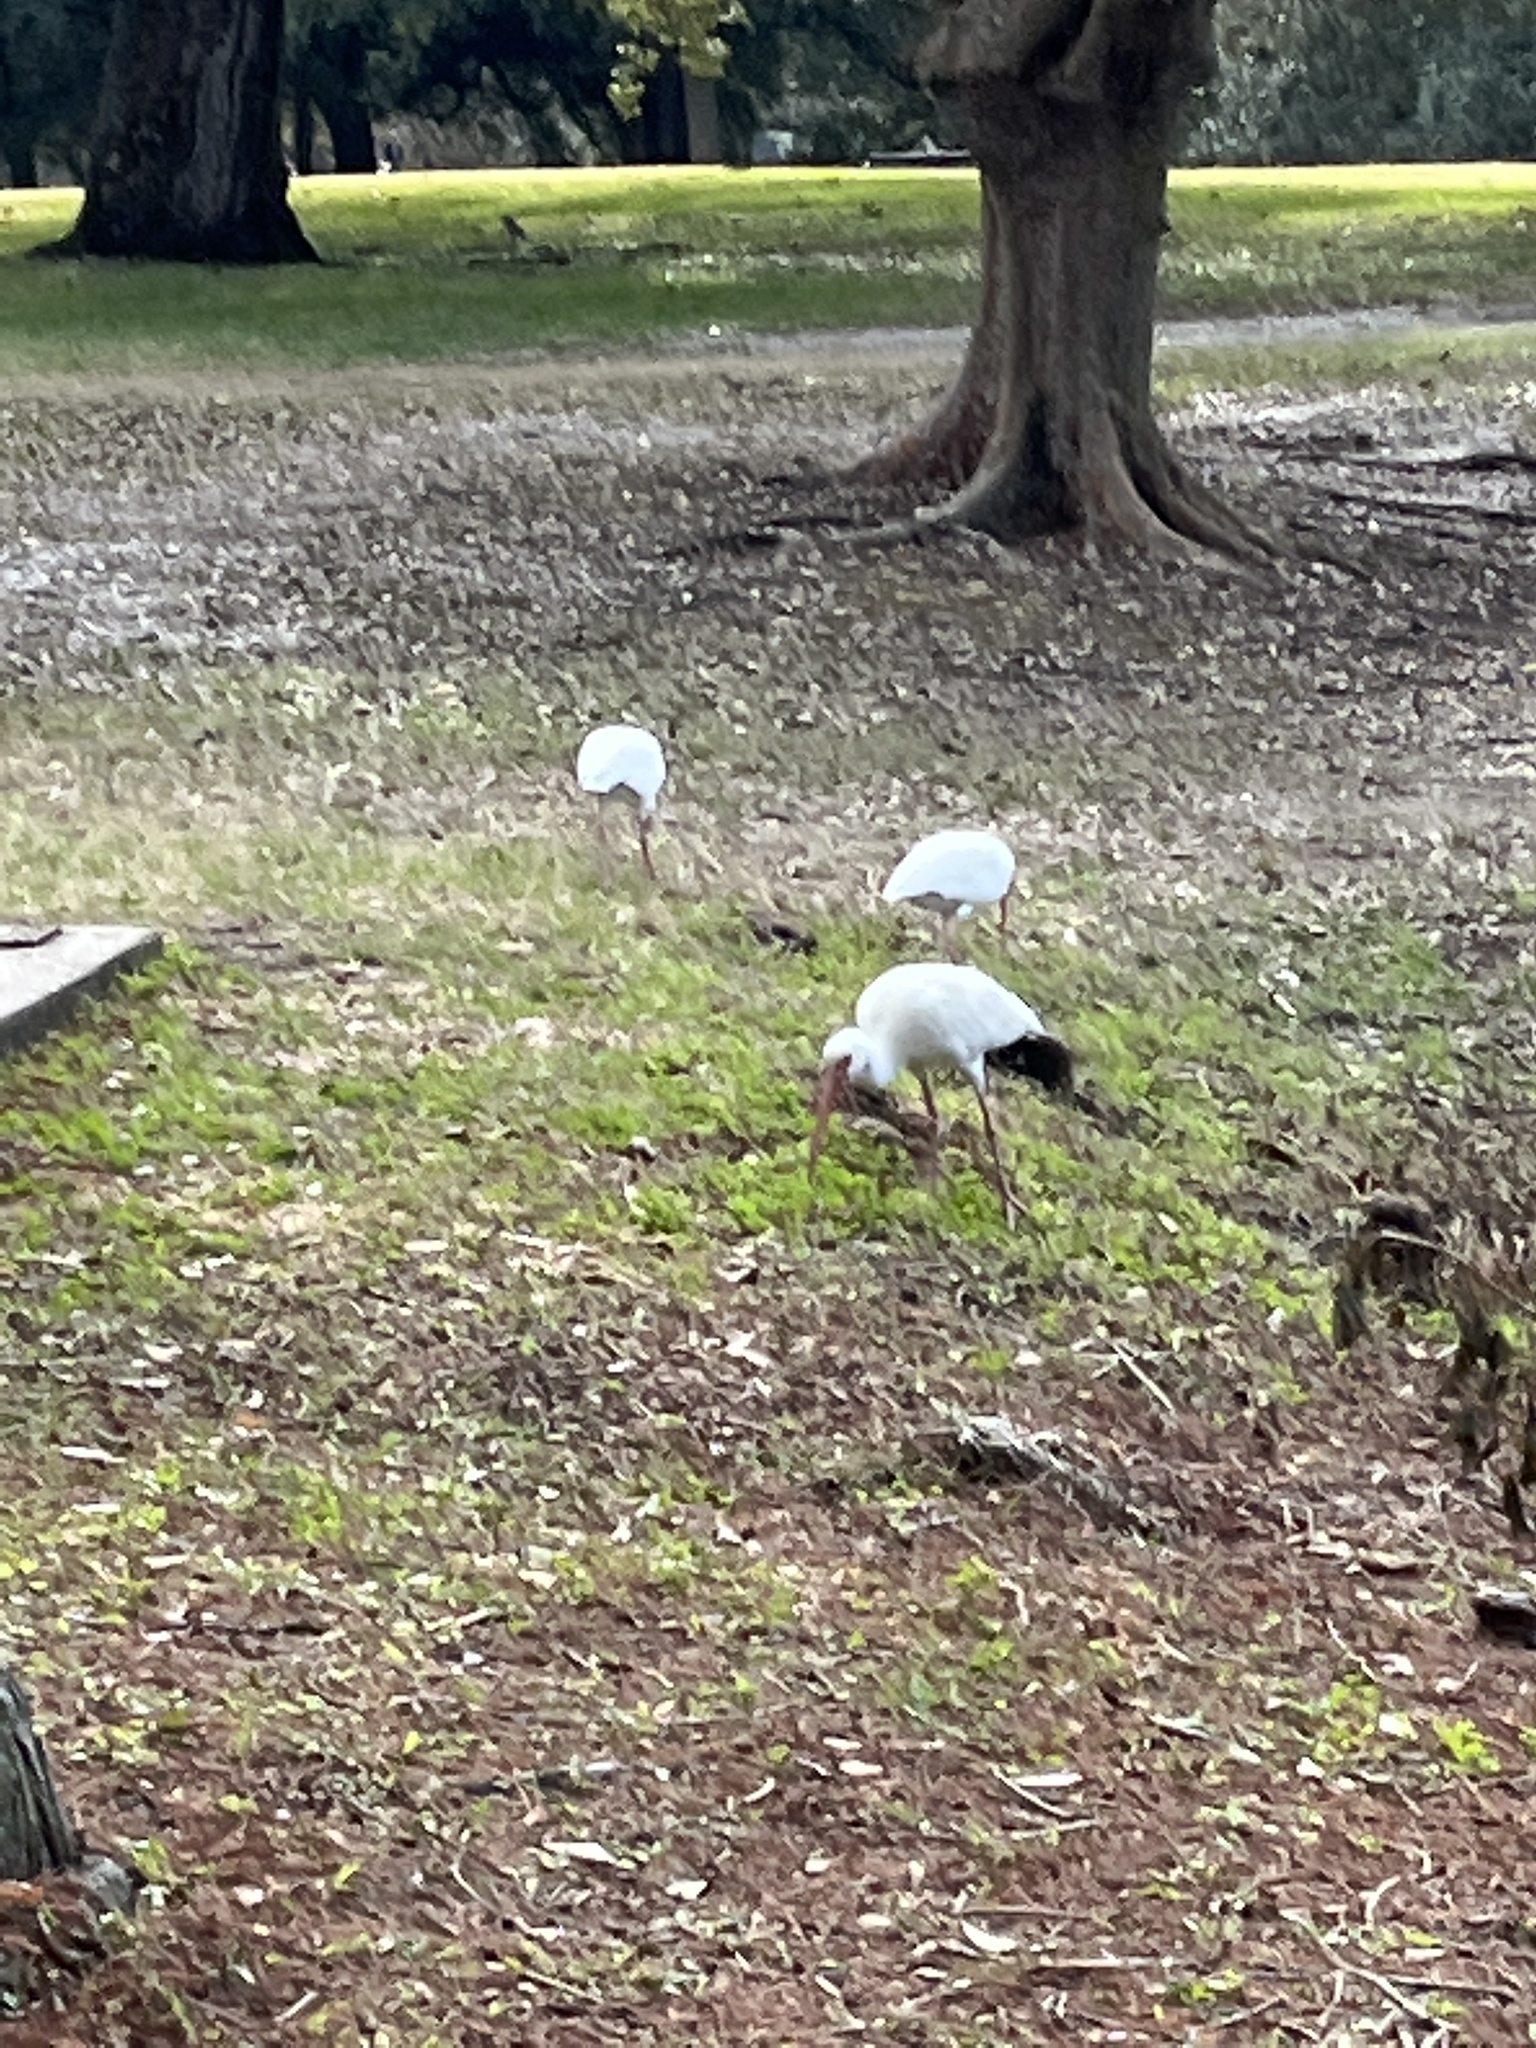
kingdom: Animalia
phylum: Chordata
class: Aves
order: Pelecaniformes
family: Threskiornithidae
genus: Eudocimus
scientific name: Eudocimus albus
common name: White ibis
